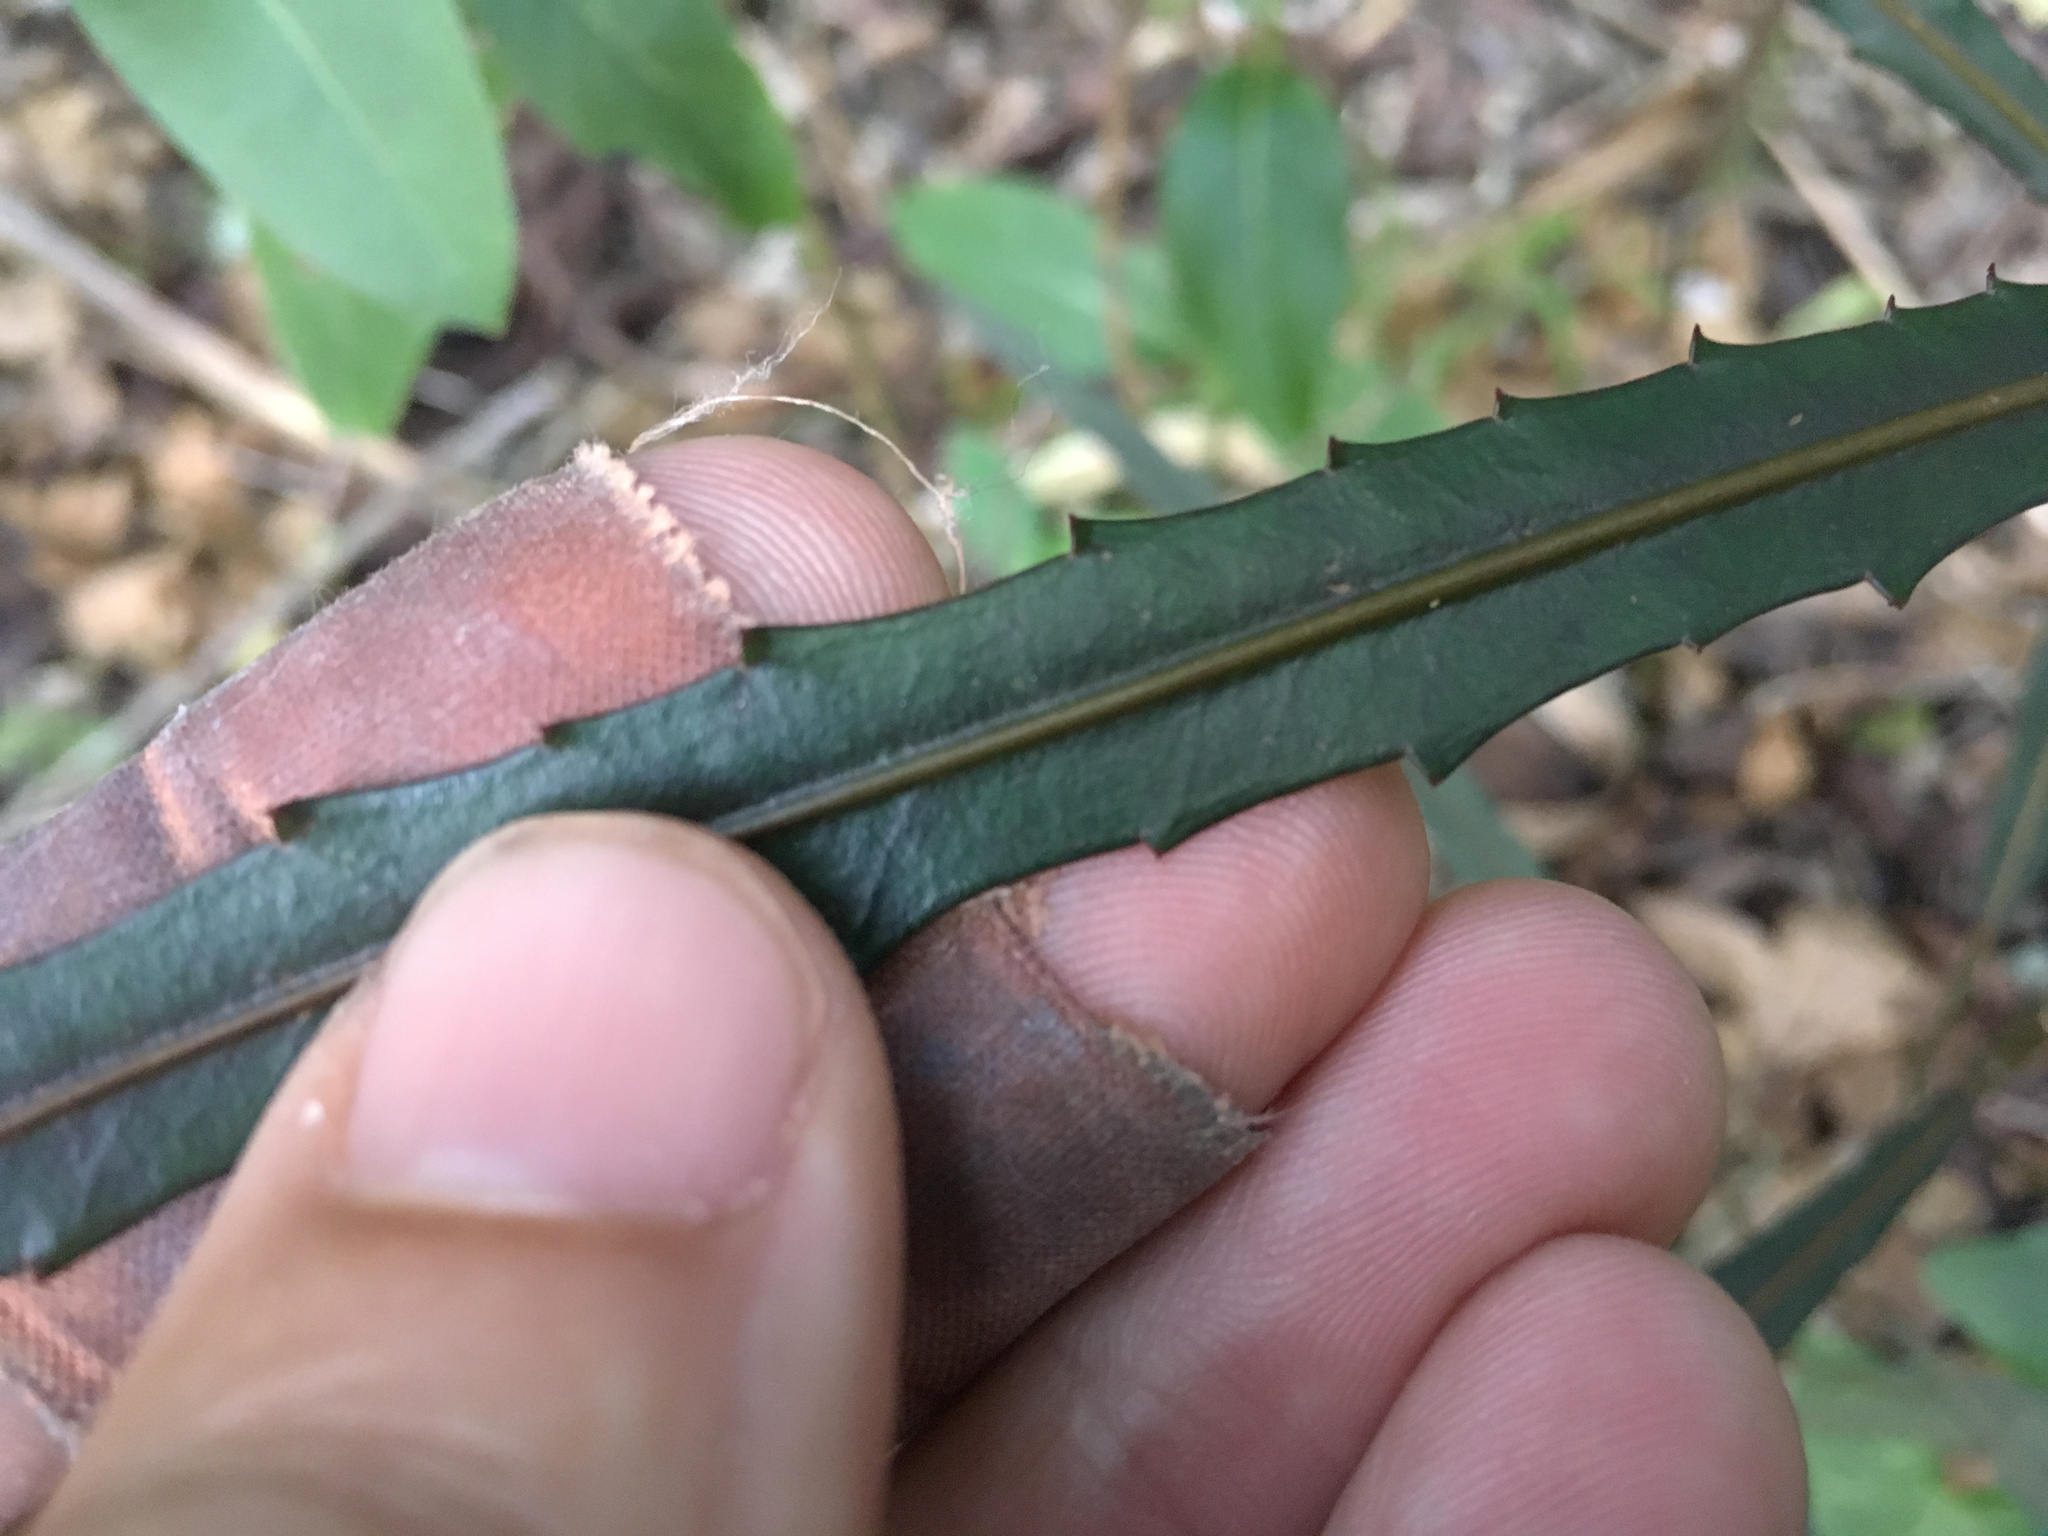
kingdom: Plantae
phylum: Tracheophyta
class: Magnoliopsida
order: Apiales
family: Araliaceae
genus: Pseudopanax
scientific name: Pseudopanax
